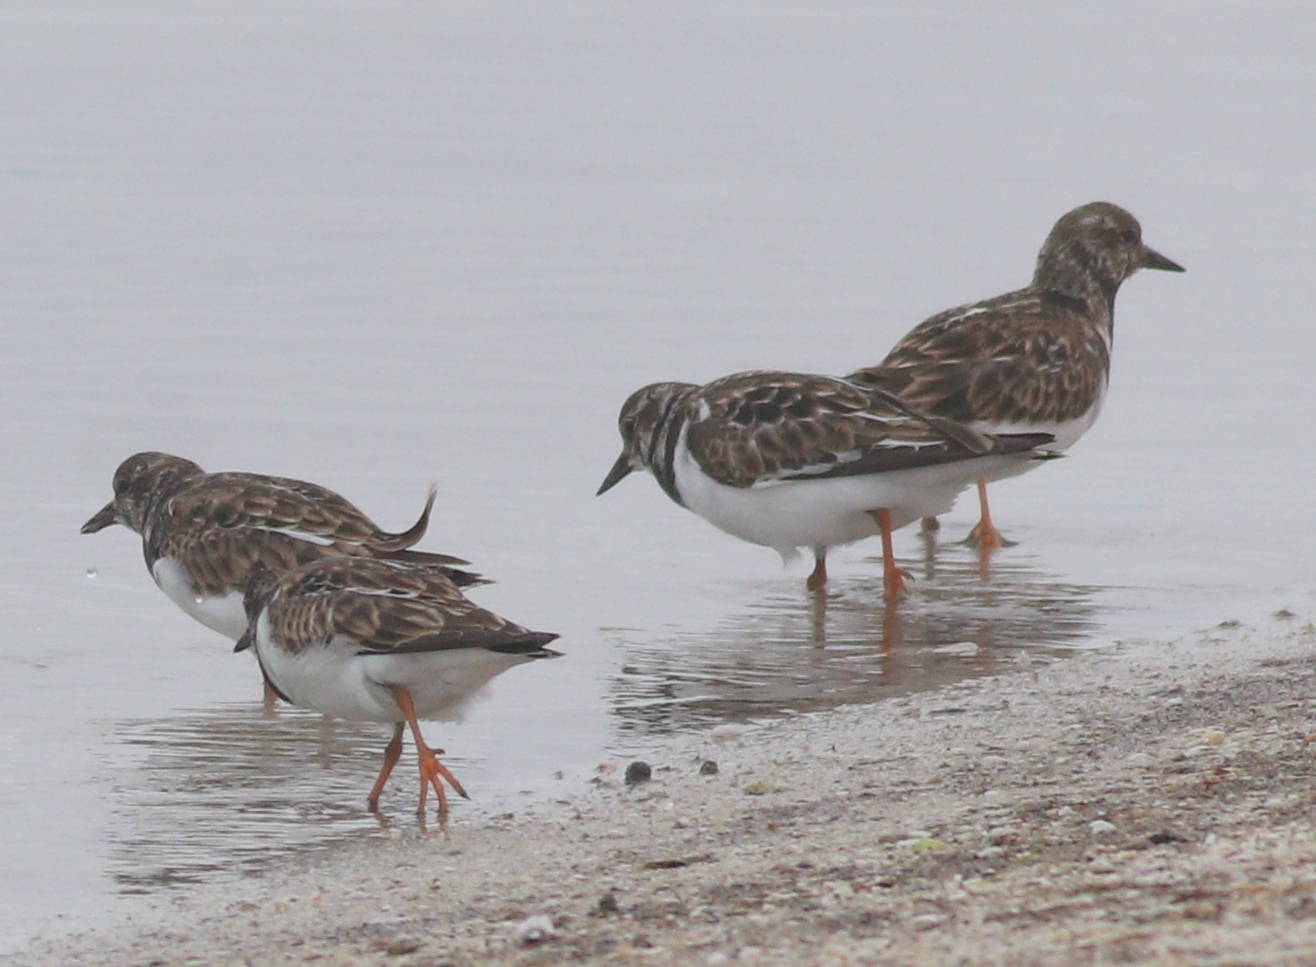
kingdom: Animalia
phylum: Chordata
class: Aves
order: Charadriiformes
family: Scolopacidae
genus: Arenaria
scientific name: Arenaria interpres
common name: Ruddy turnstone
